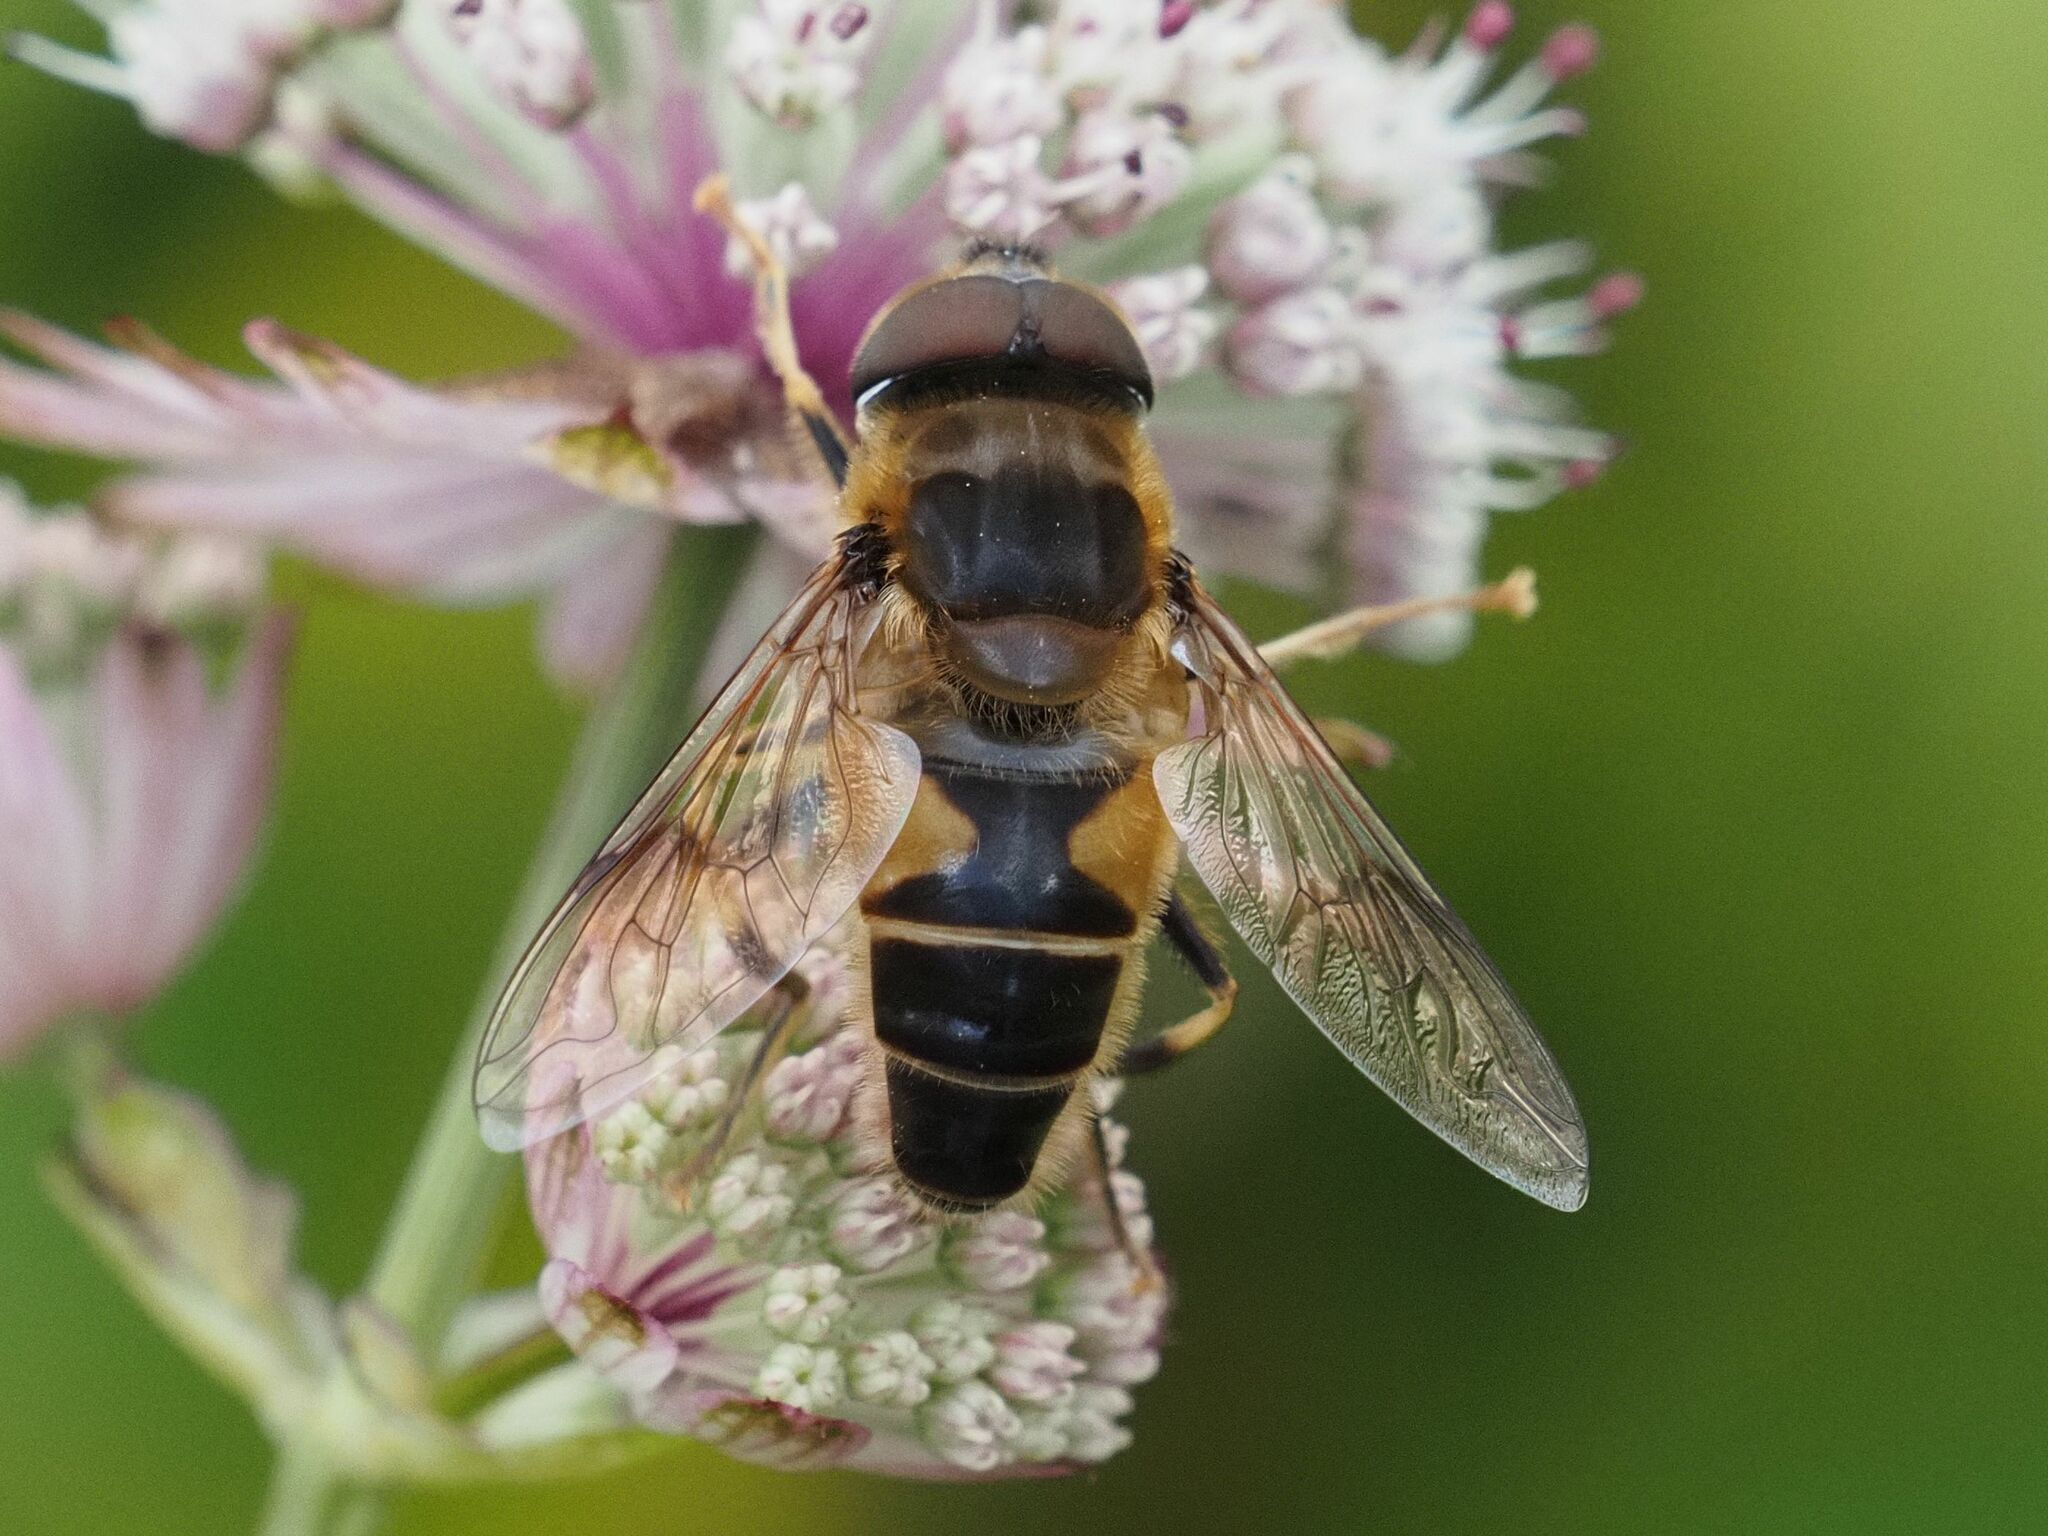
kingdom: Animalia
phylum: Arthropoda
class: Insecta
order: Diptera
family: Syrphidae
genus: Eristalis
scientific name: Eristalis pertinax
